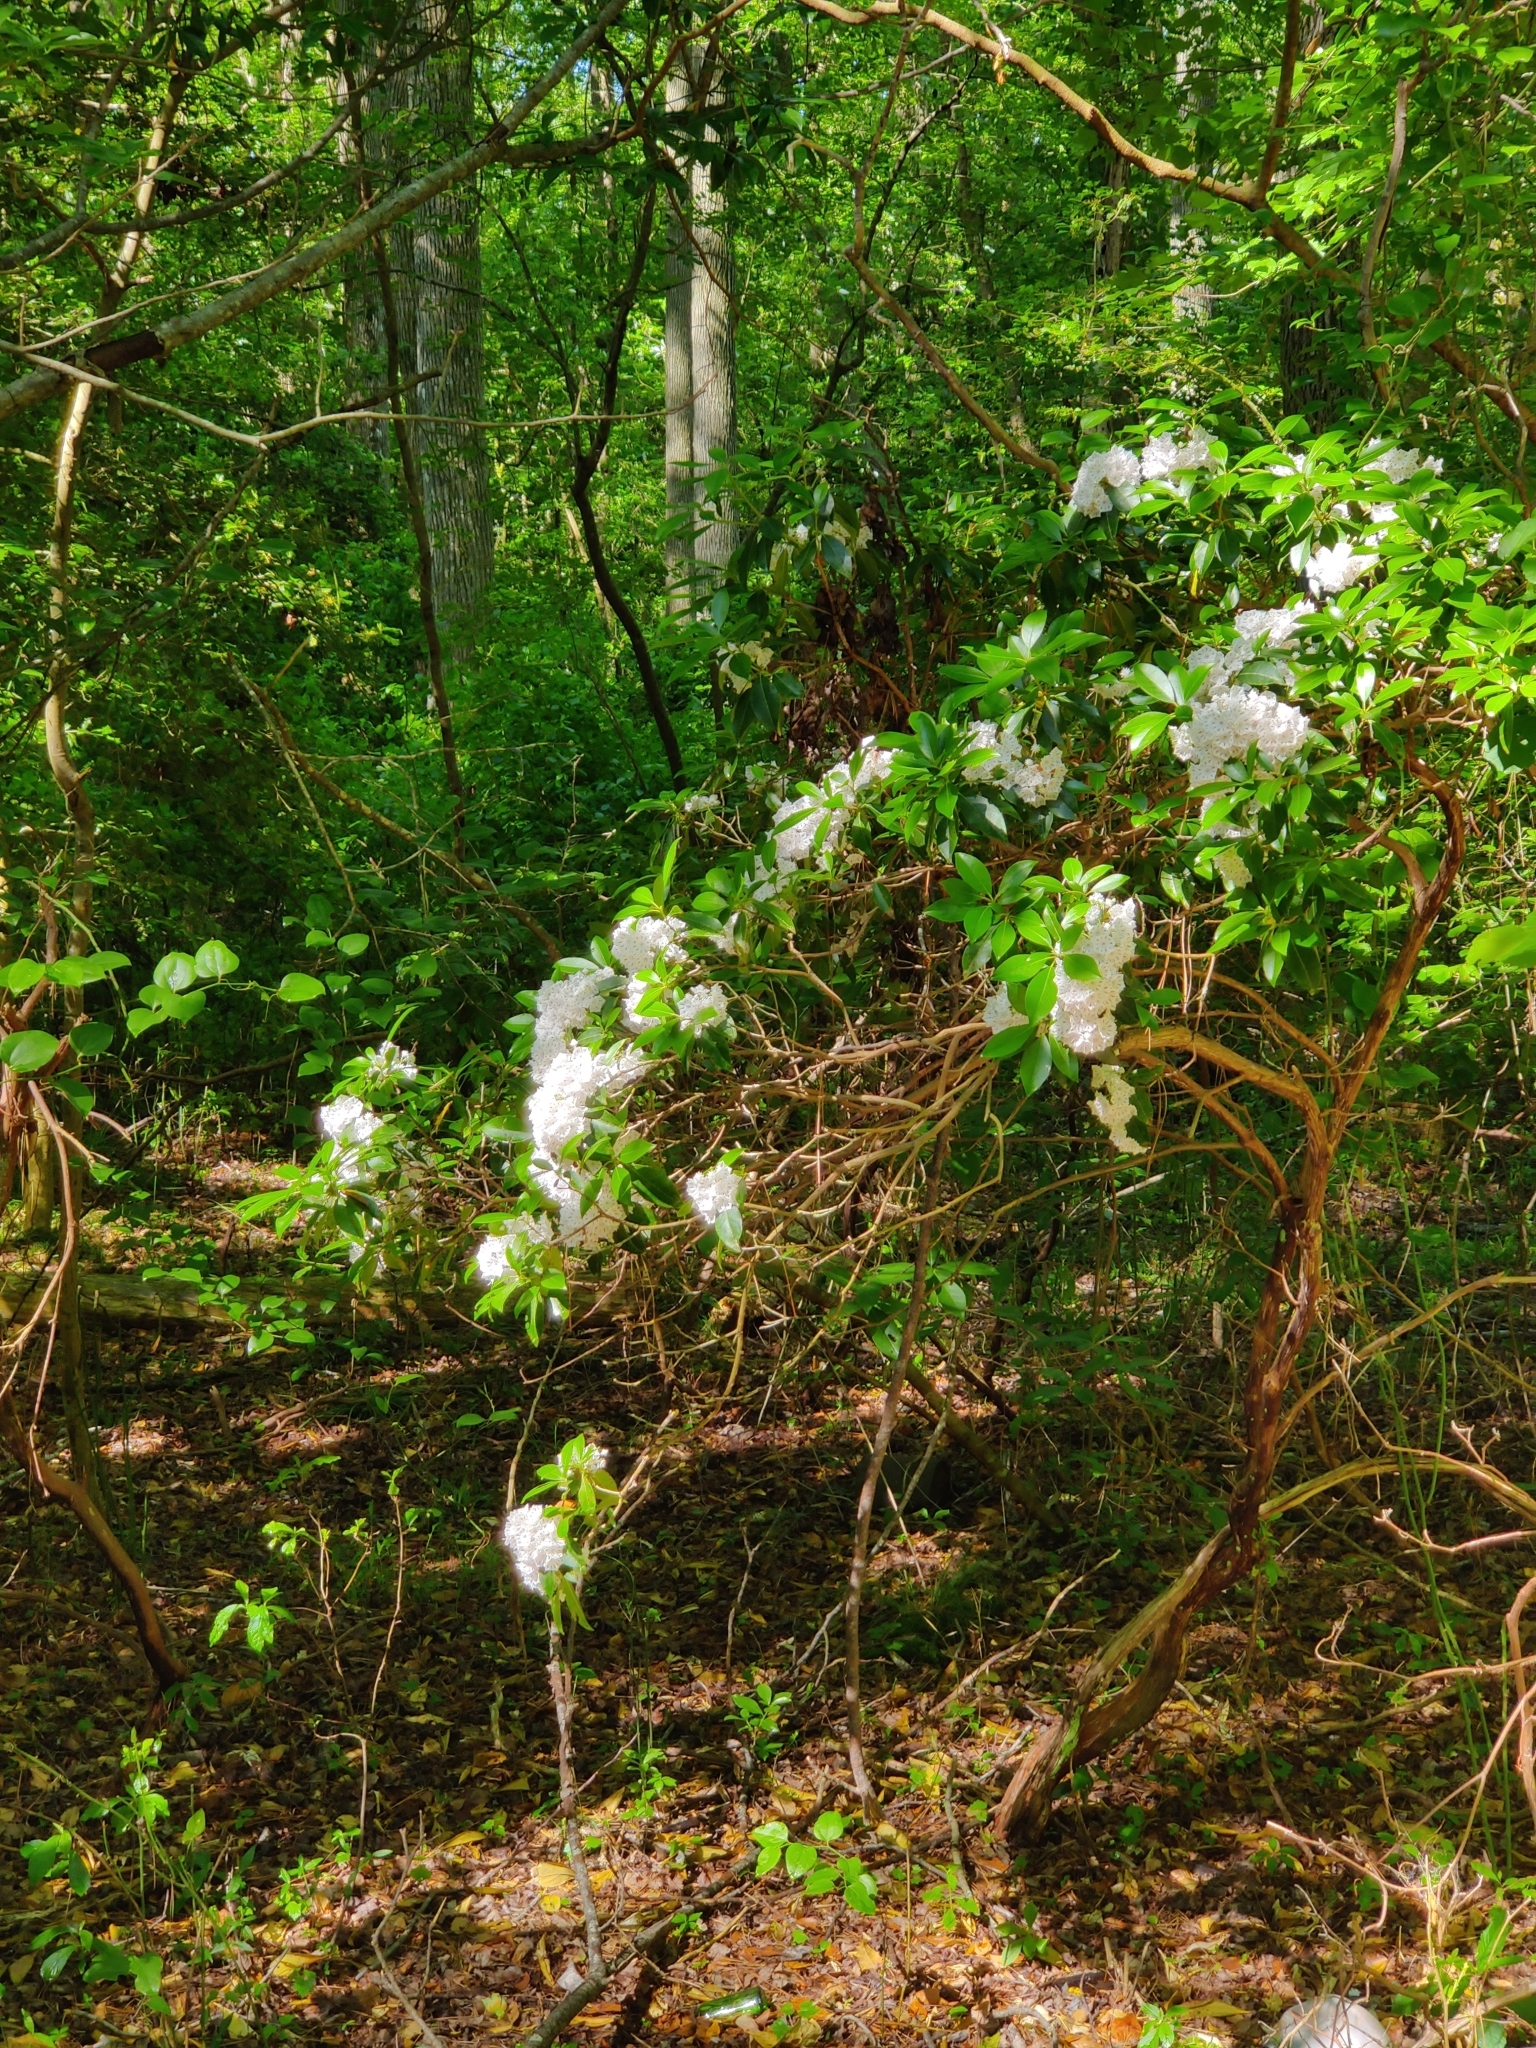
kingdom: Plantae
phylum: Tracheophyta
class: Magnoliopsida
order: Ericales
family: Ericaceae
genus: Kalmia
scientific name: Kalmia latifolia
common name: Mountain-laurel
